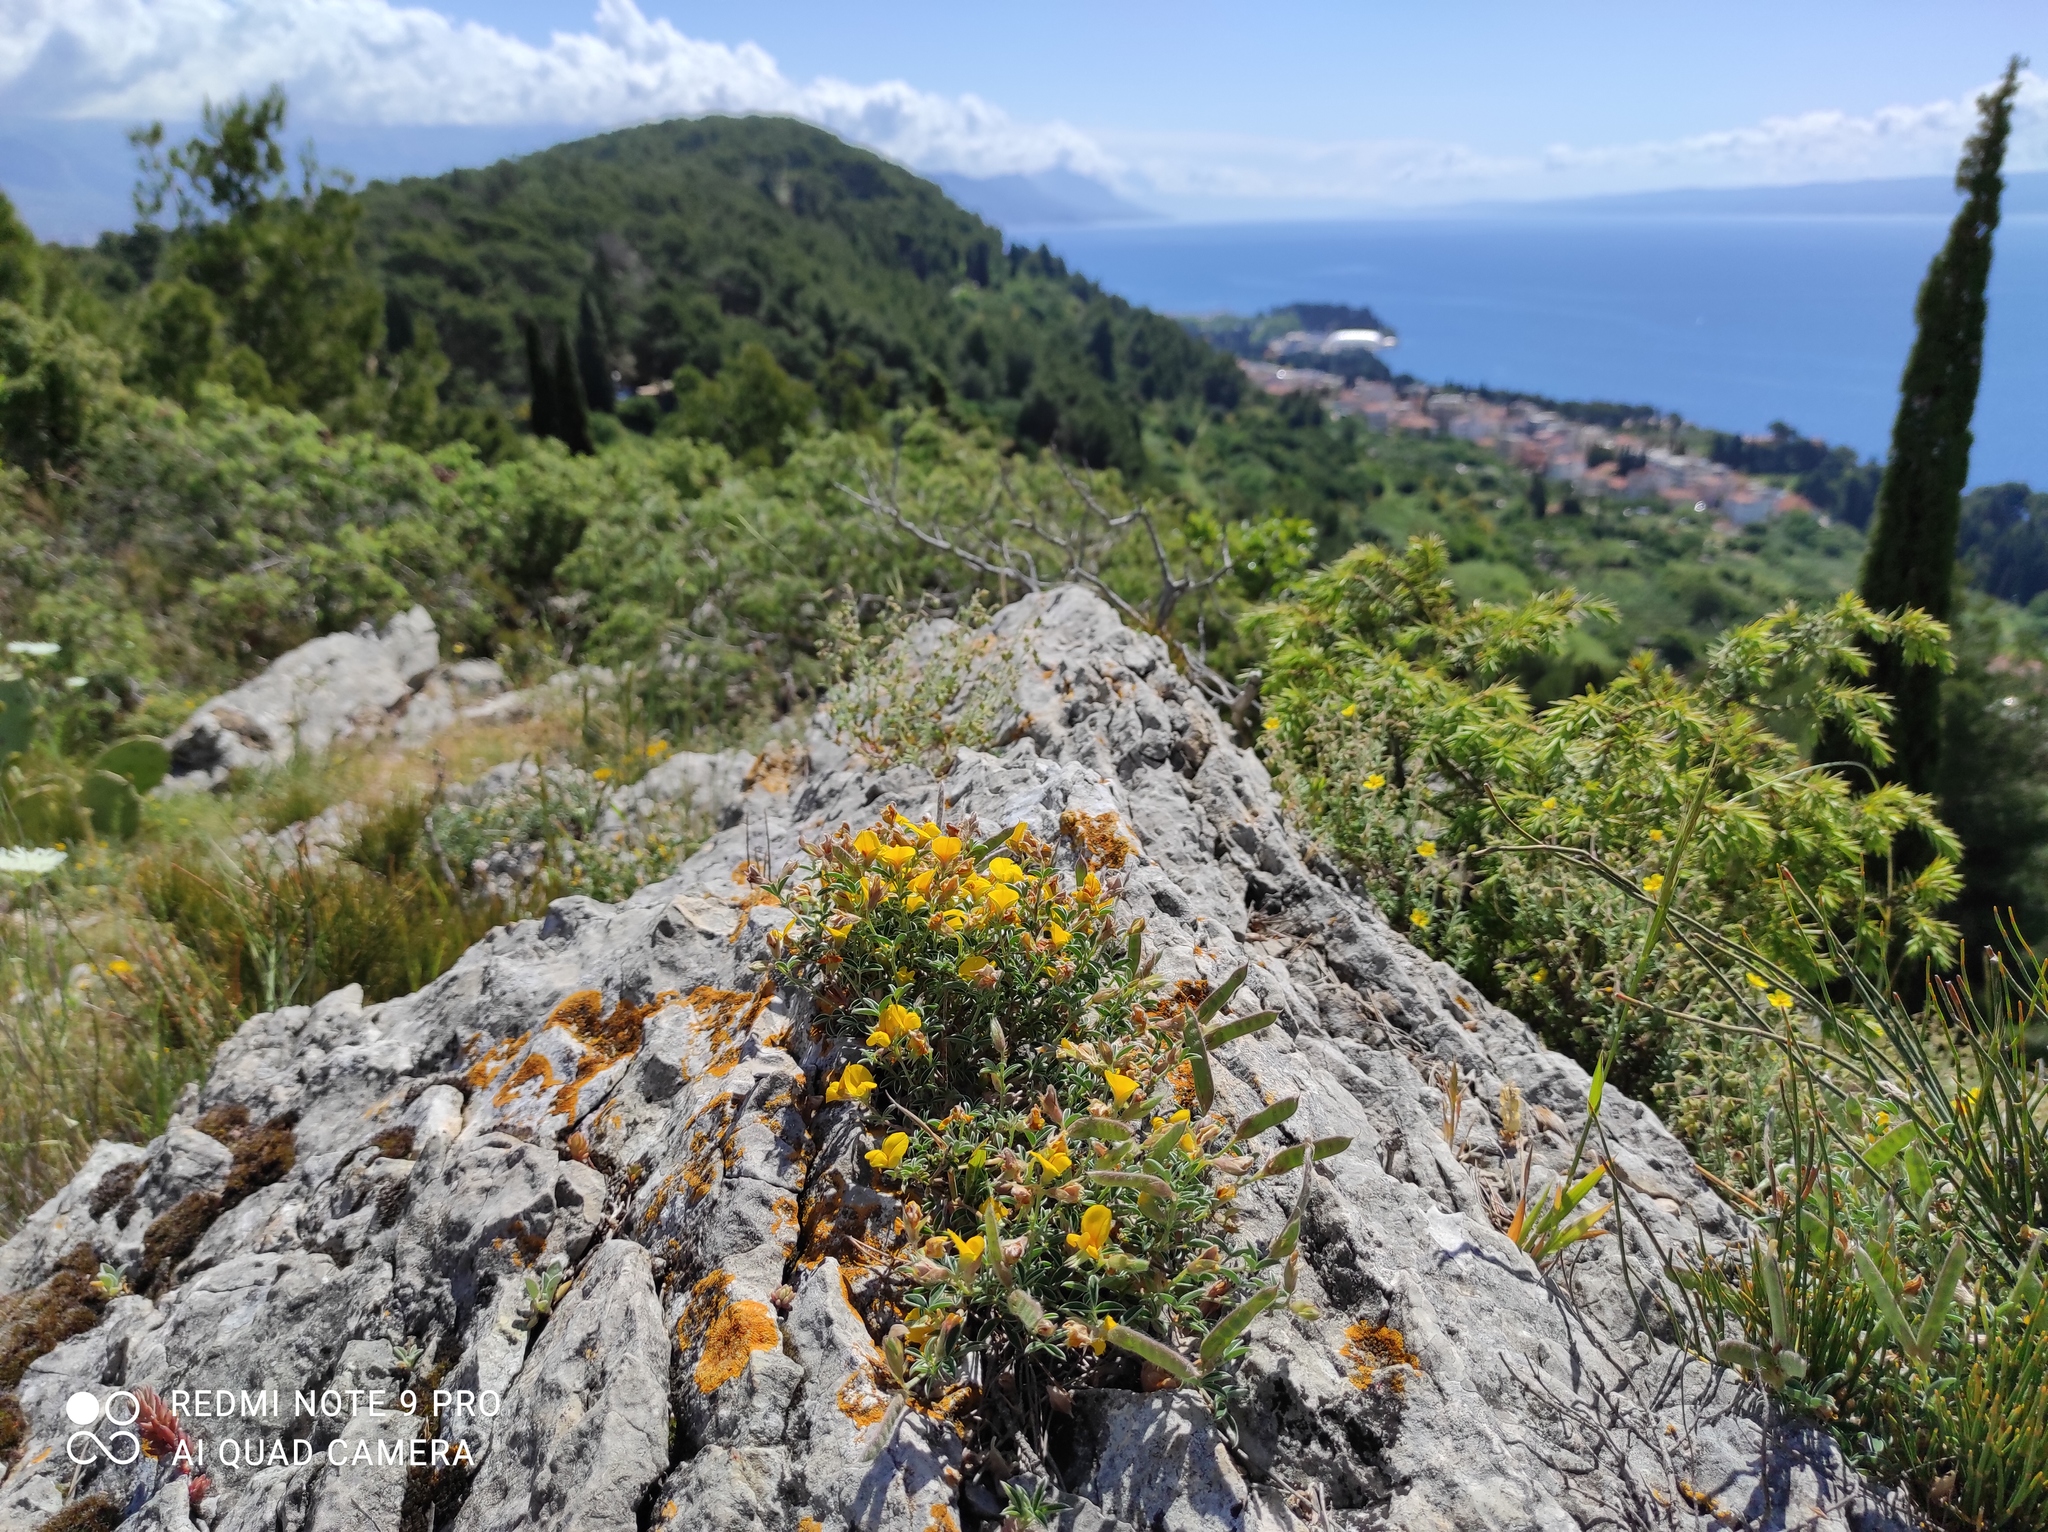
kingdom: Plantae
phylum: Tracheophyta
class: Magnoliopsida
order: Fabales
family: Fabaceae
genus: Argyrolobium
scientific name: Argyrolobium zanonii
